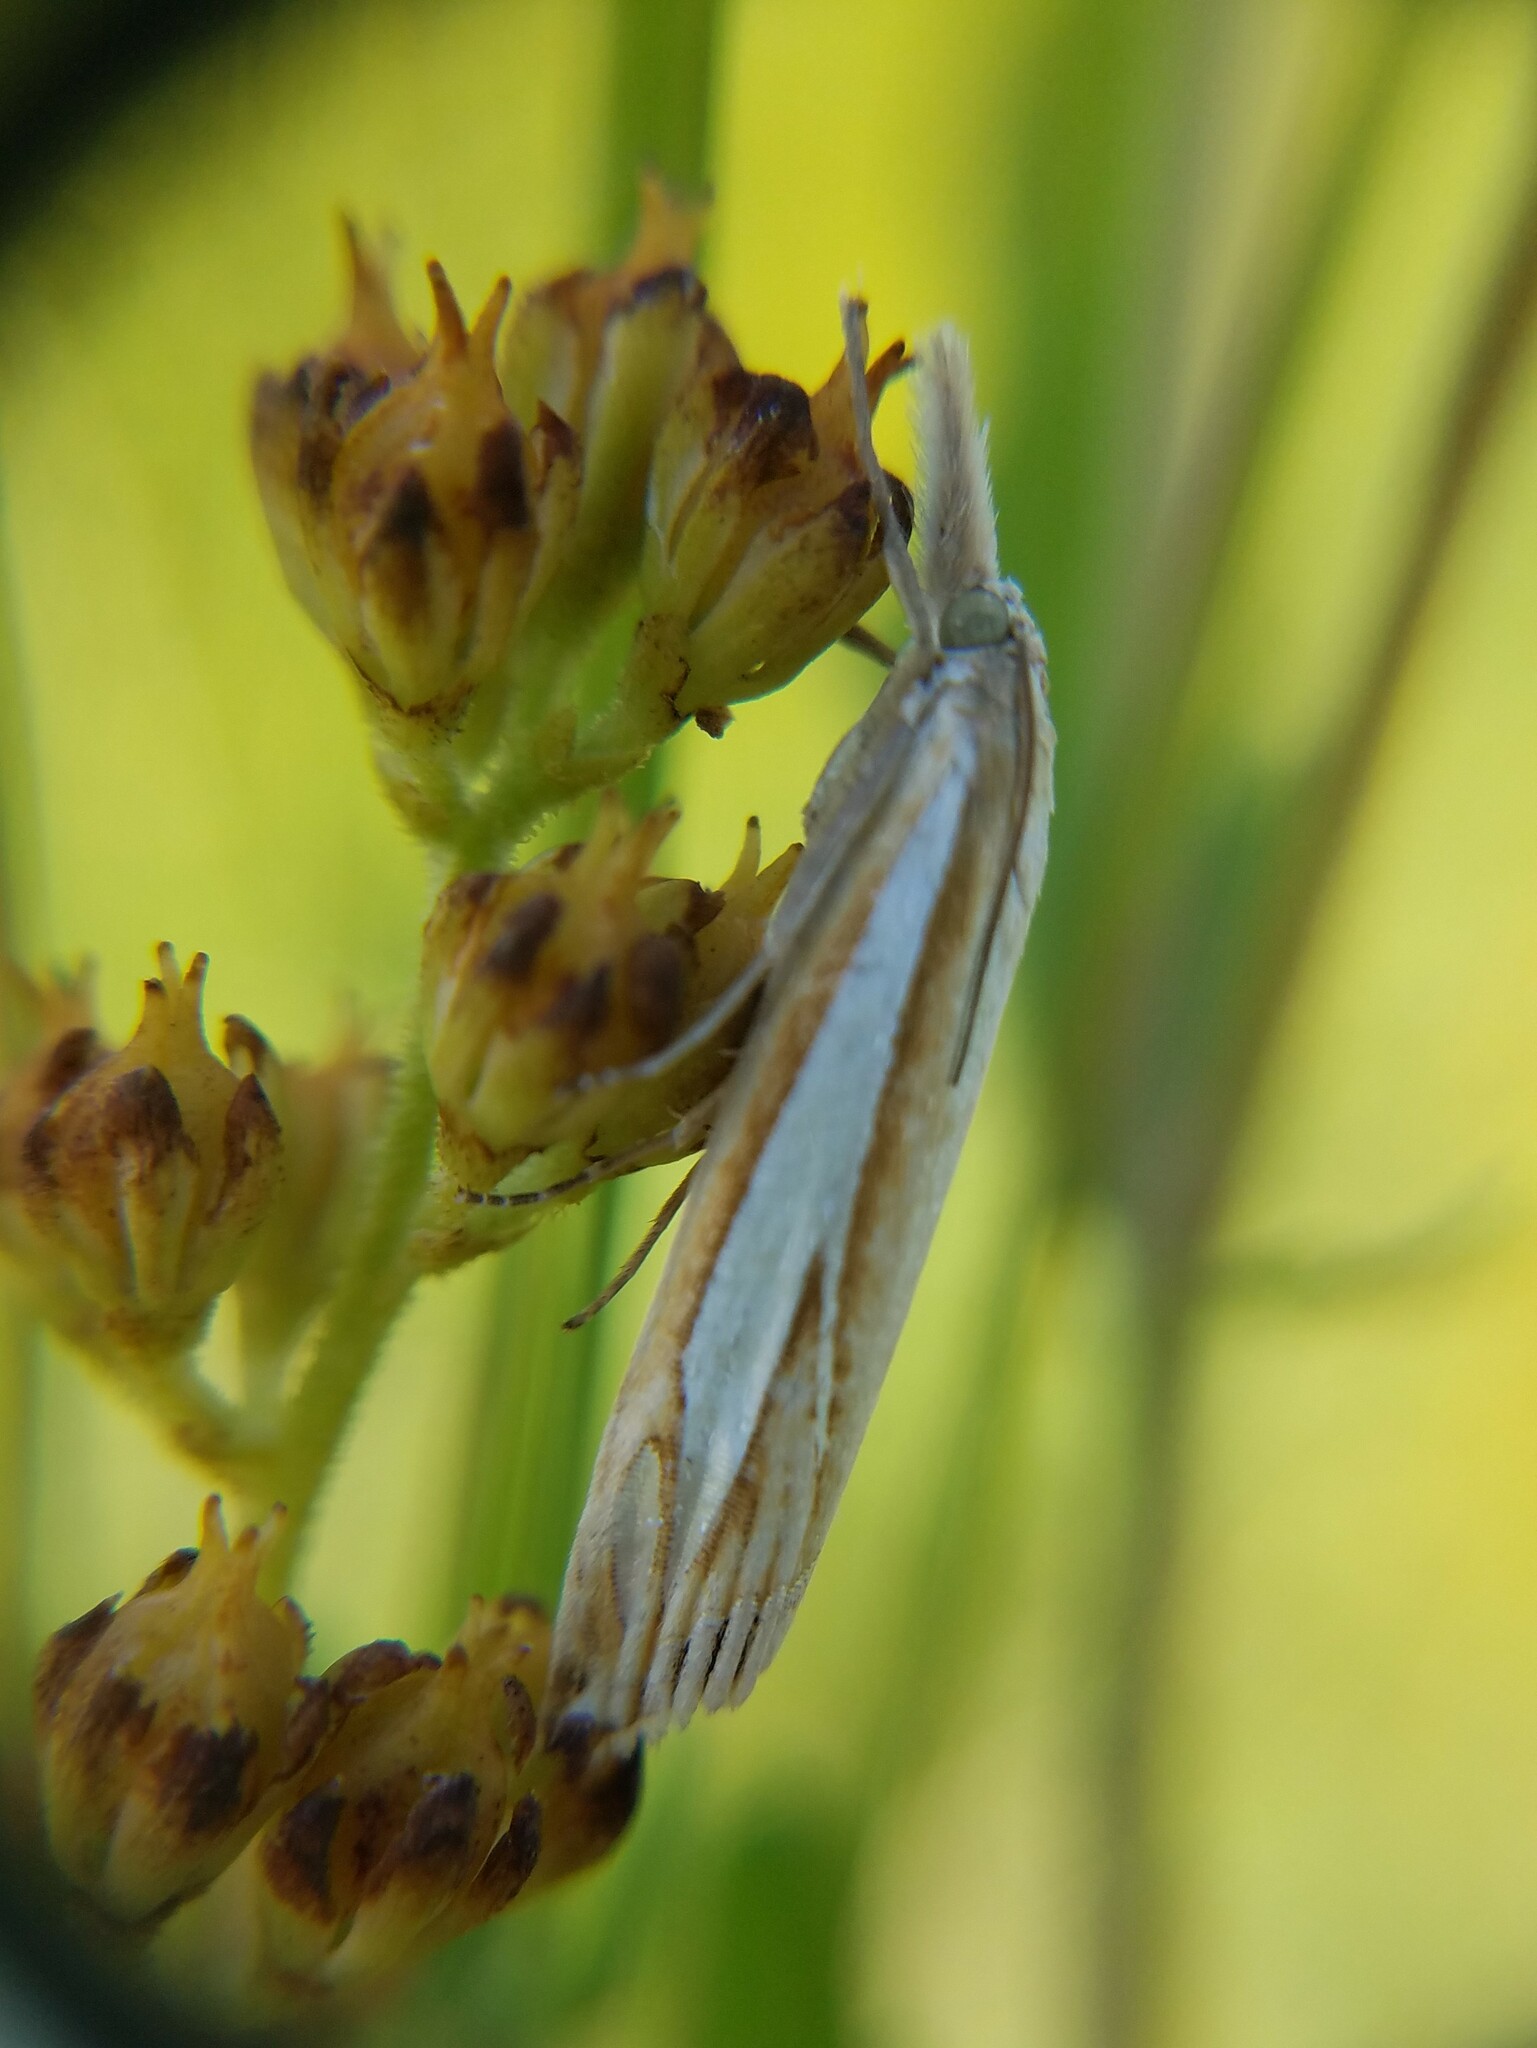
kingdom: Animalia
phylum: Arthropoda
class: Insecta
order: Lepidoptera
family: Crambidae
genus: Crambus
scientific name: Crambus satrapellus
